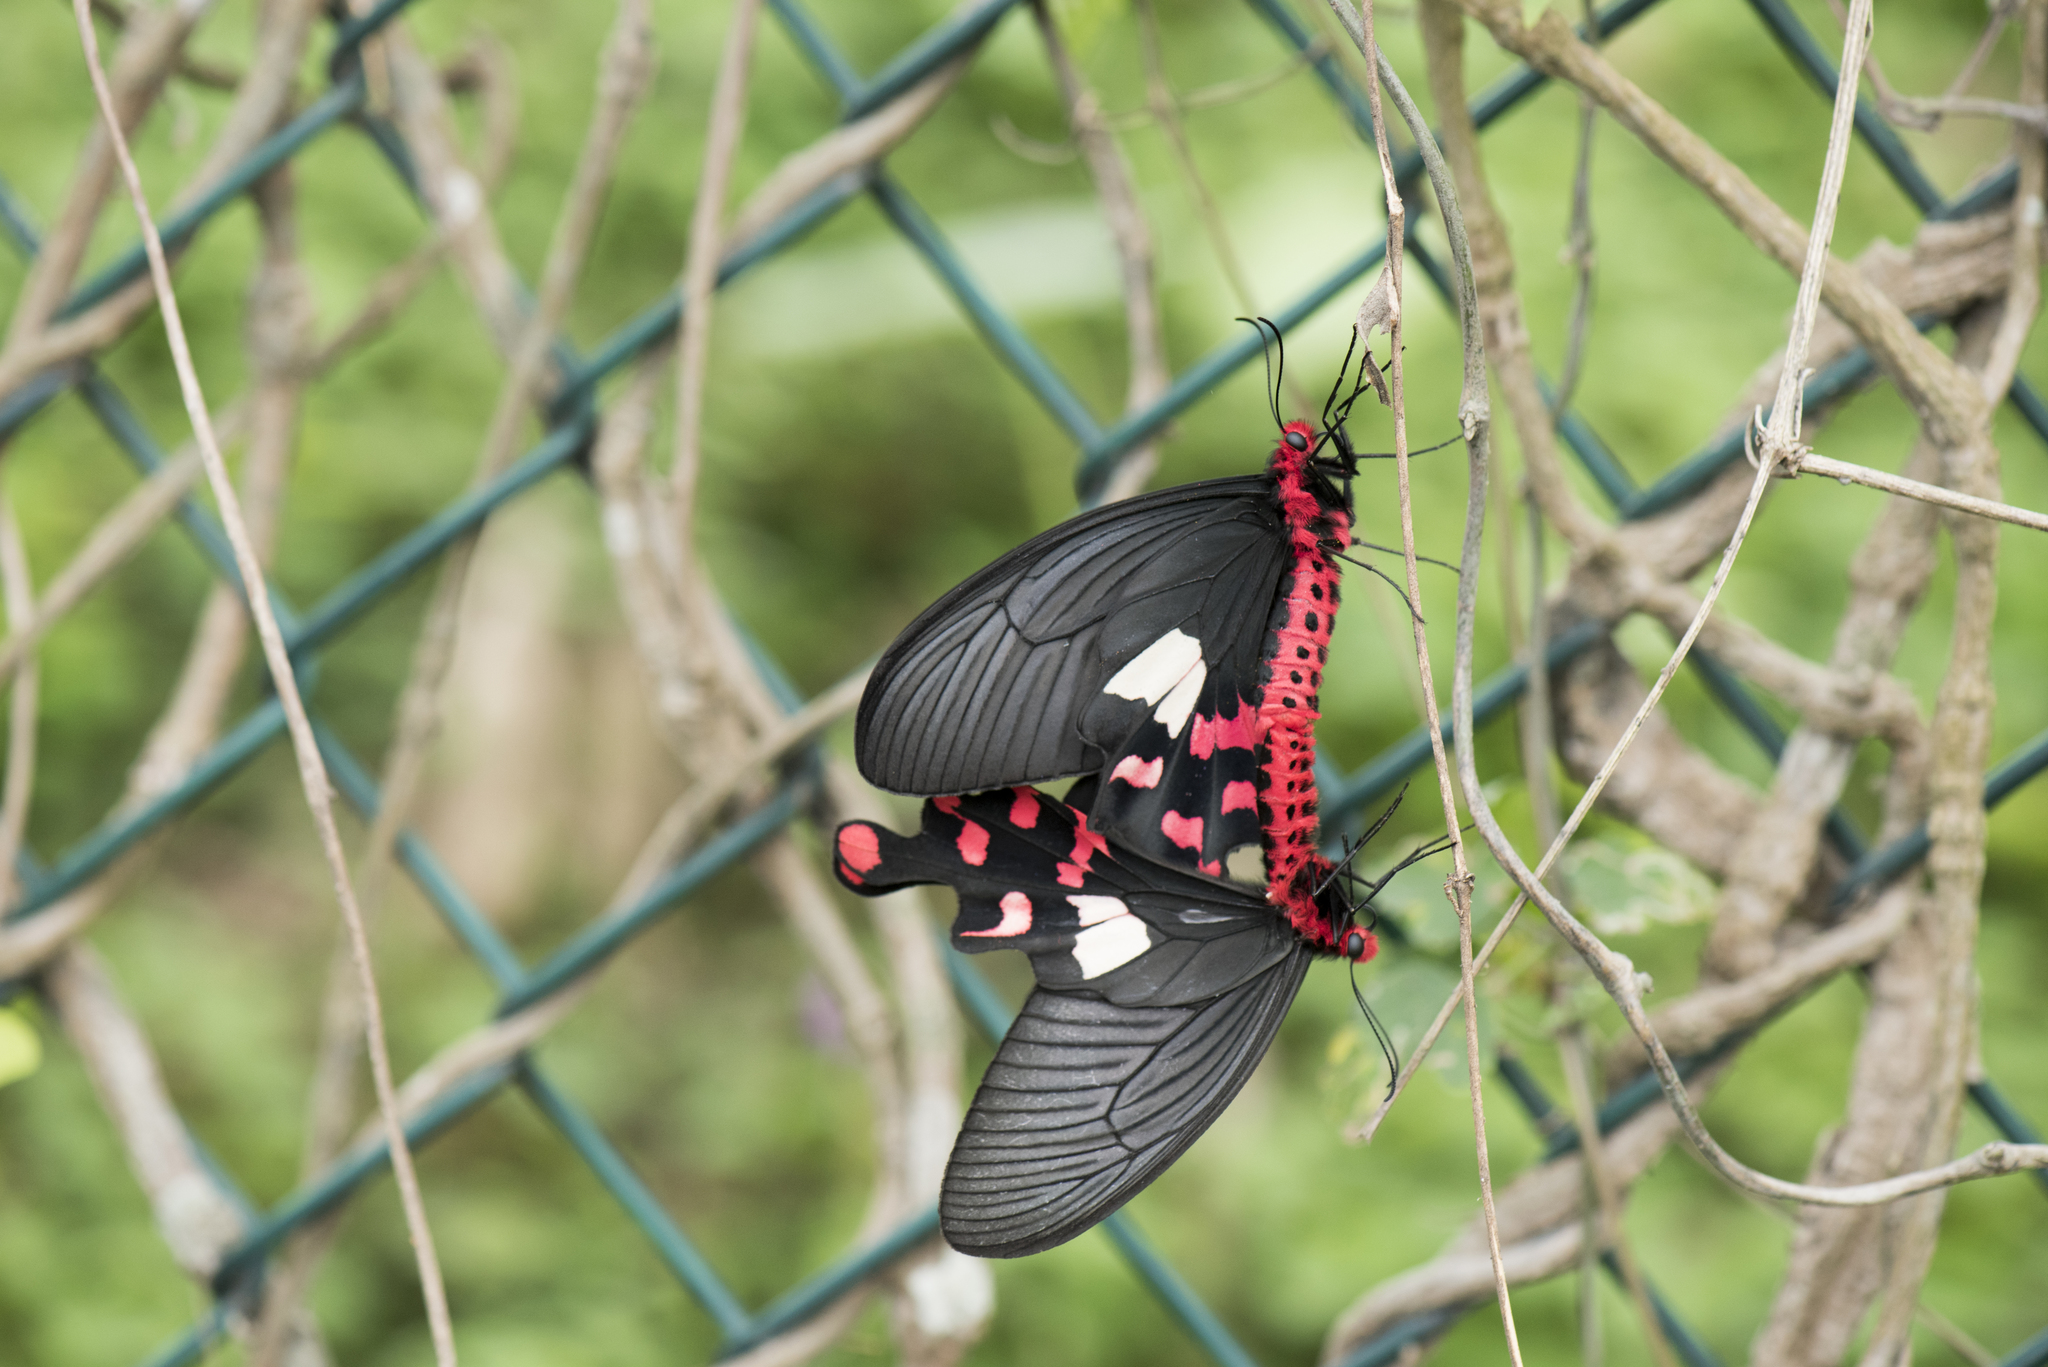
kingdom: Animalia
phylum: Arthropoda
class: Insecta
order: Lepidoptera
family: Papilionidae
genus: Byasa
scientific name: Byasa polyeuctes
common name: Common windmill
